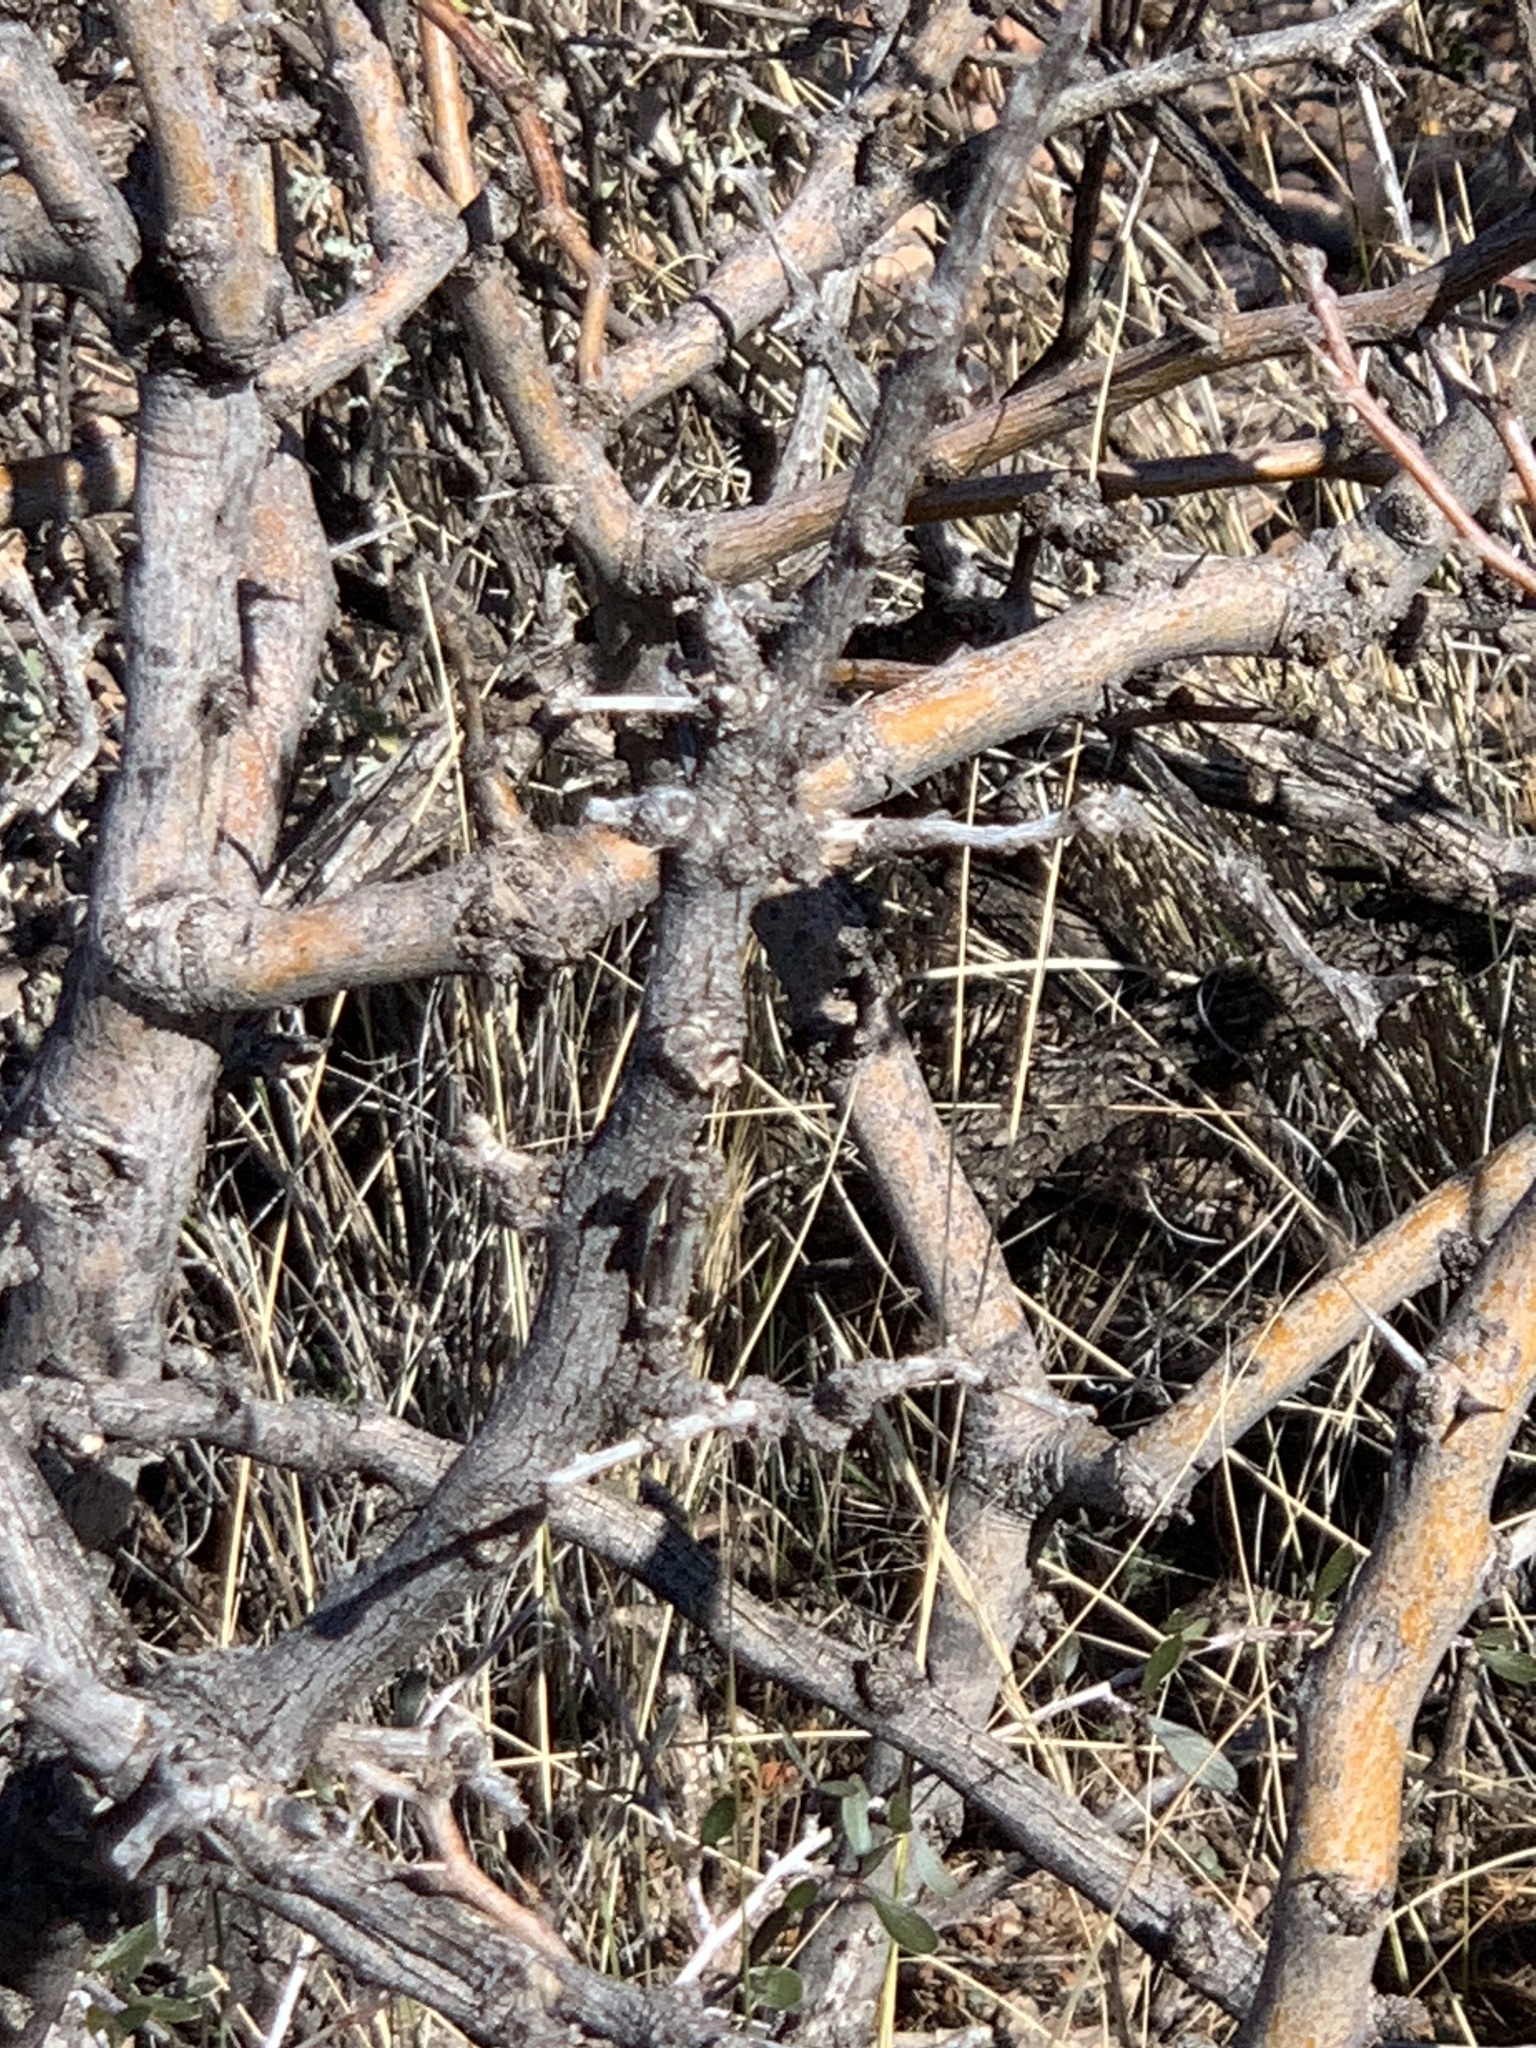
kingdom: Plantae
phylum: Tracheophyta
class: Magnoliopsida
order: Fabales
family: Fabaceae
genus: Prosopis
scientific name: Prosopis glandulosa
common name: Honey mesquite
